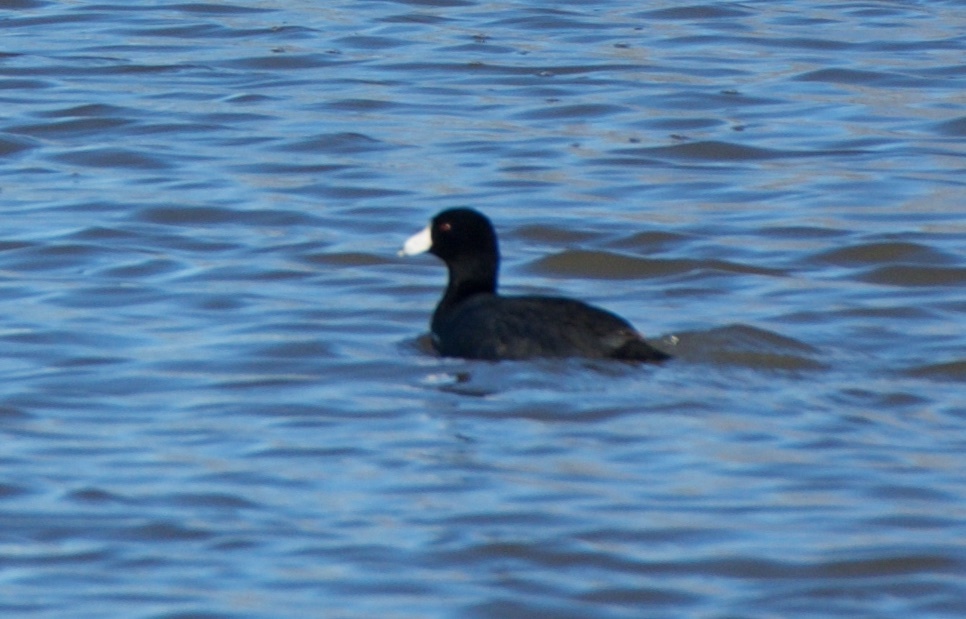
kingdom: Animalia
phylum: Chordata
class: Aves
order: Gruiformes
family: Rallidae
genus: Fulica
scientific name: Fulica americana
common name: American coot
